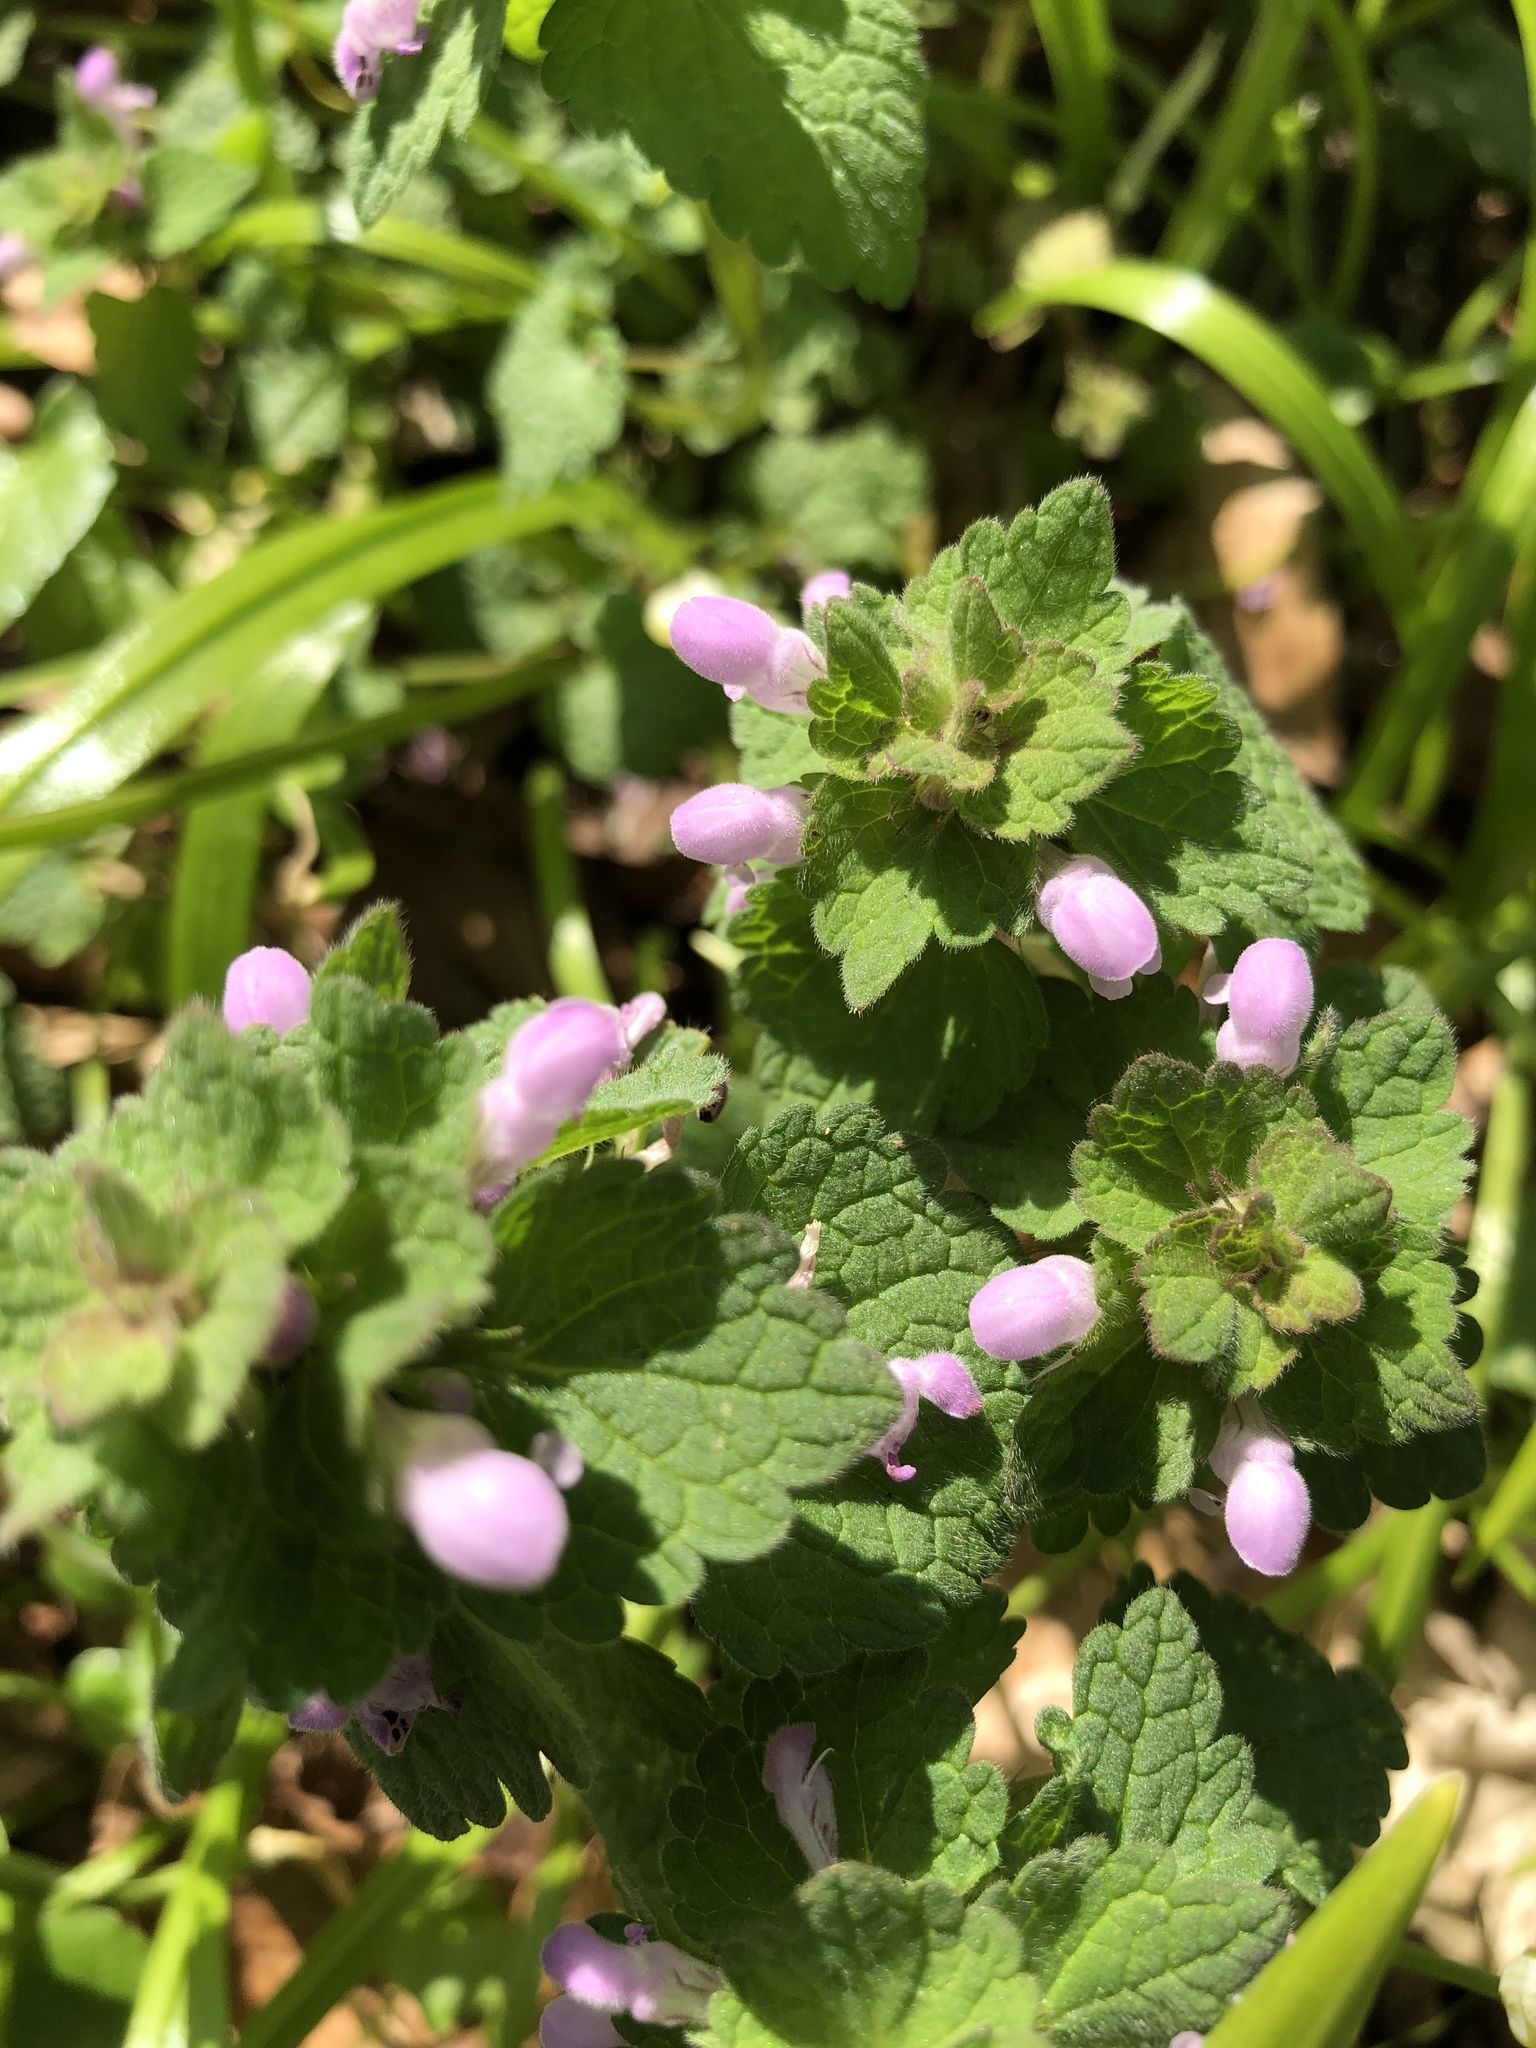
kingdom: Plantae
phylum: Tracheophyta
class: Magnoliopsida
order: Lamiales
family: Lamiaceae
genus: Lamium
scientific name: Lamium purpureum
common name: Red dead-nettle
